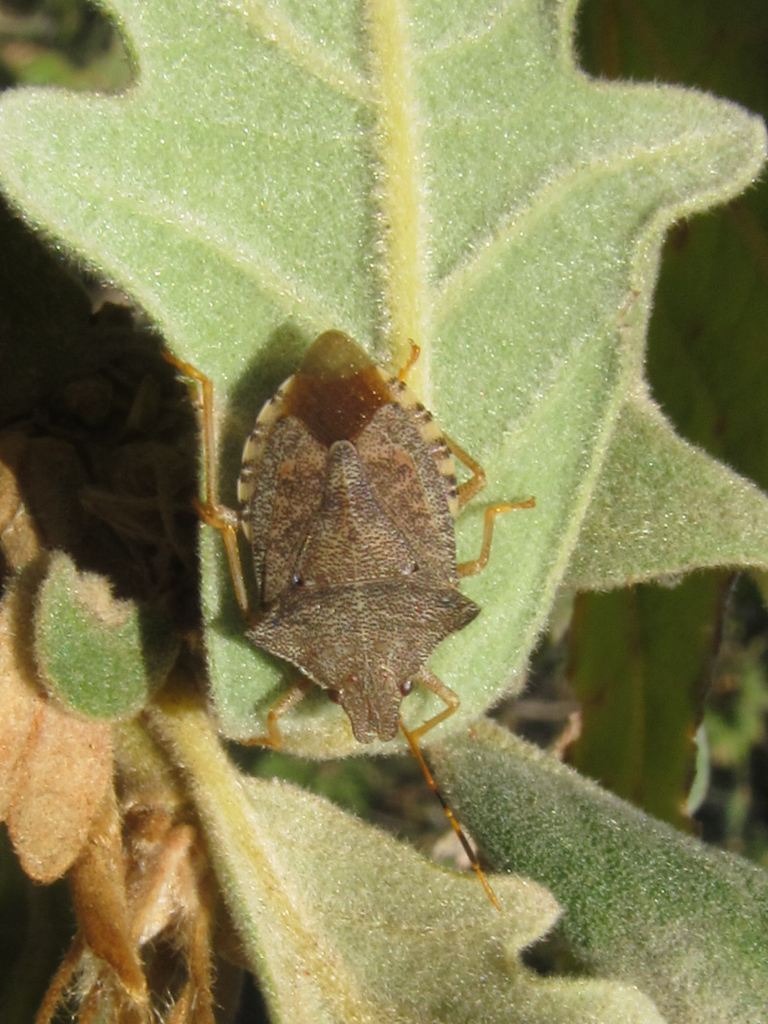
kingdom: Animalia
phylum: Arthropoda
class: Insecta
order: Hemiptera
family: Pentatomidae
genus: Arma
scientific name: Arma custos
